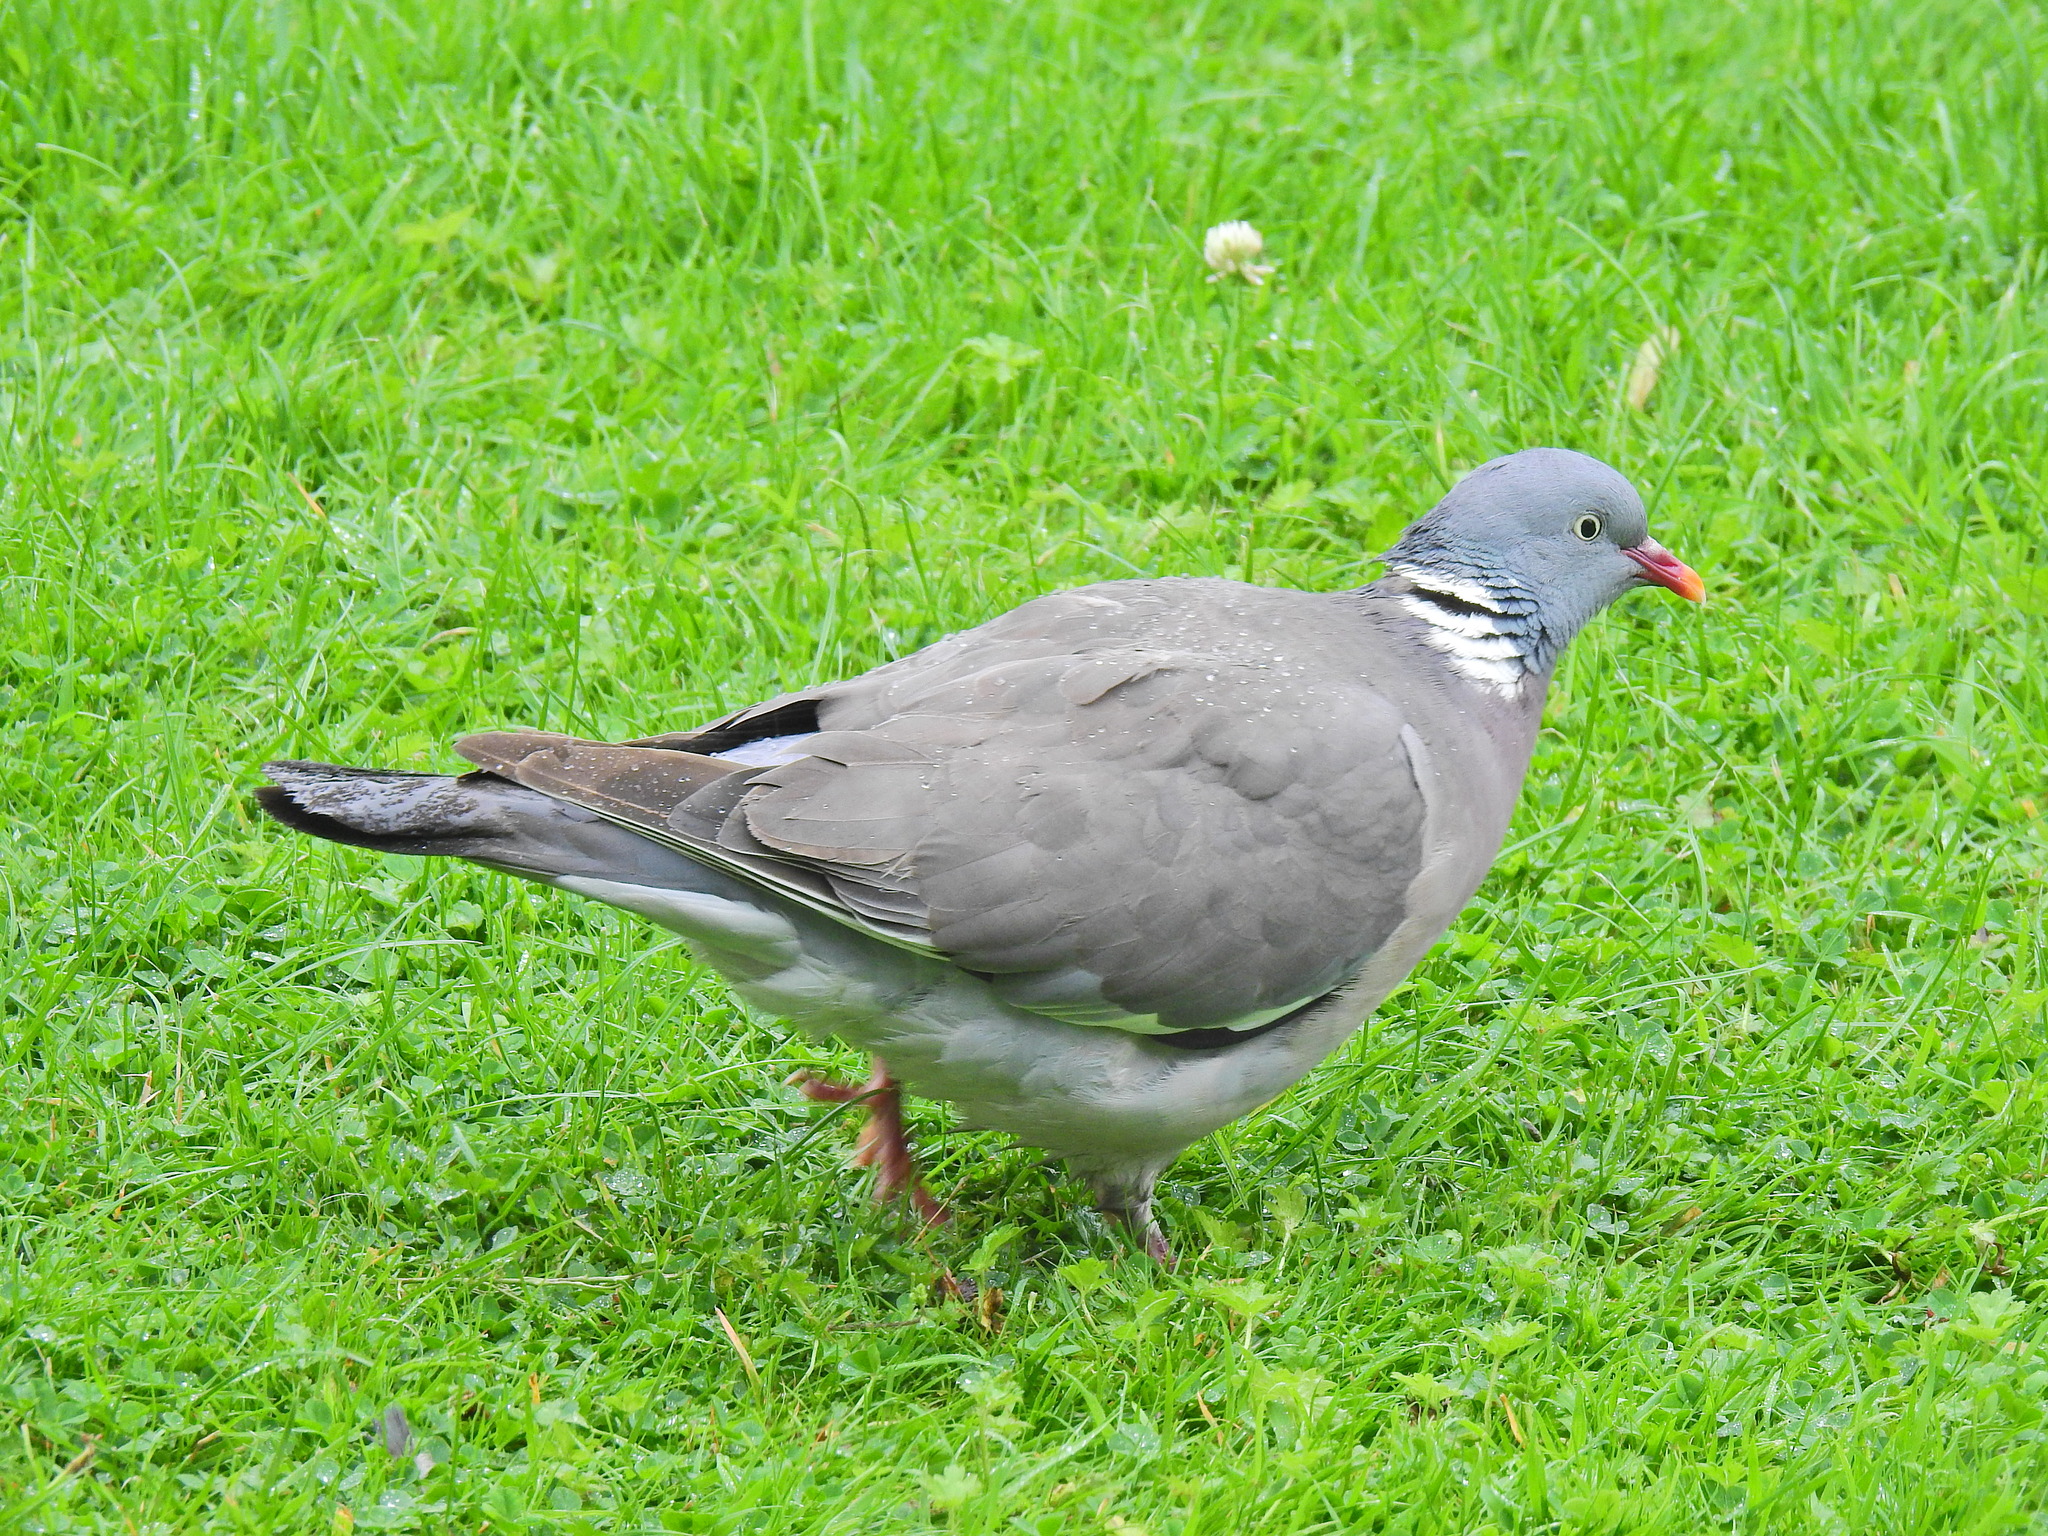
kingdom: Animalia
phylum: Chordata
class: Aves
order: Columbiformes
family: Columbidae
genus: Columba
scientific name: Columba palumbus
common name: Common wood pigeon
